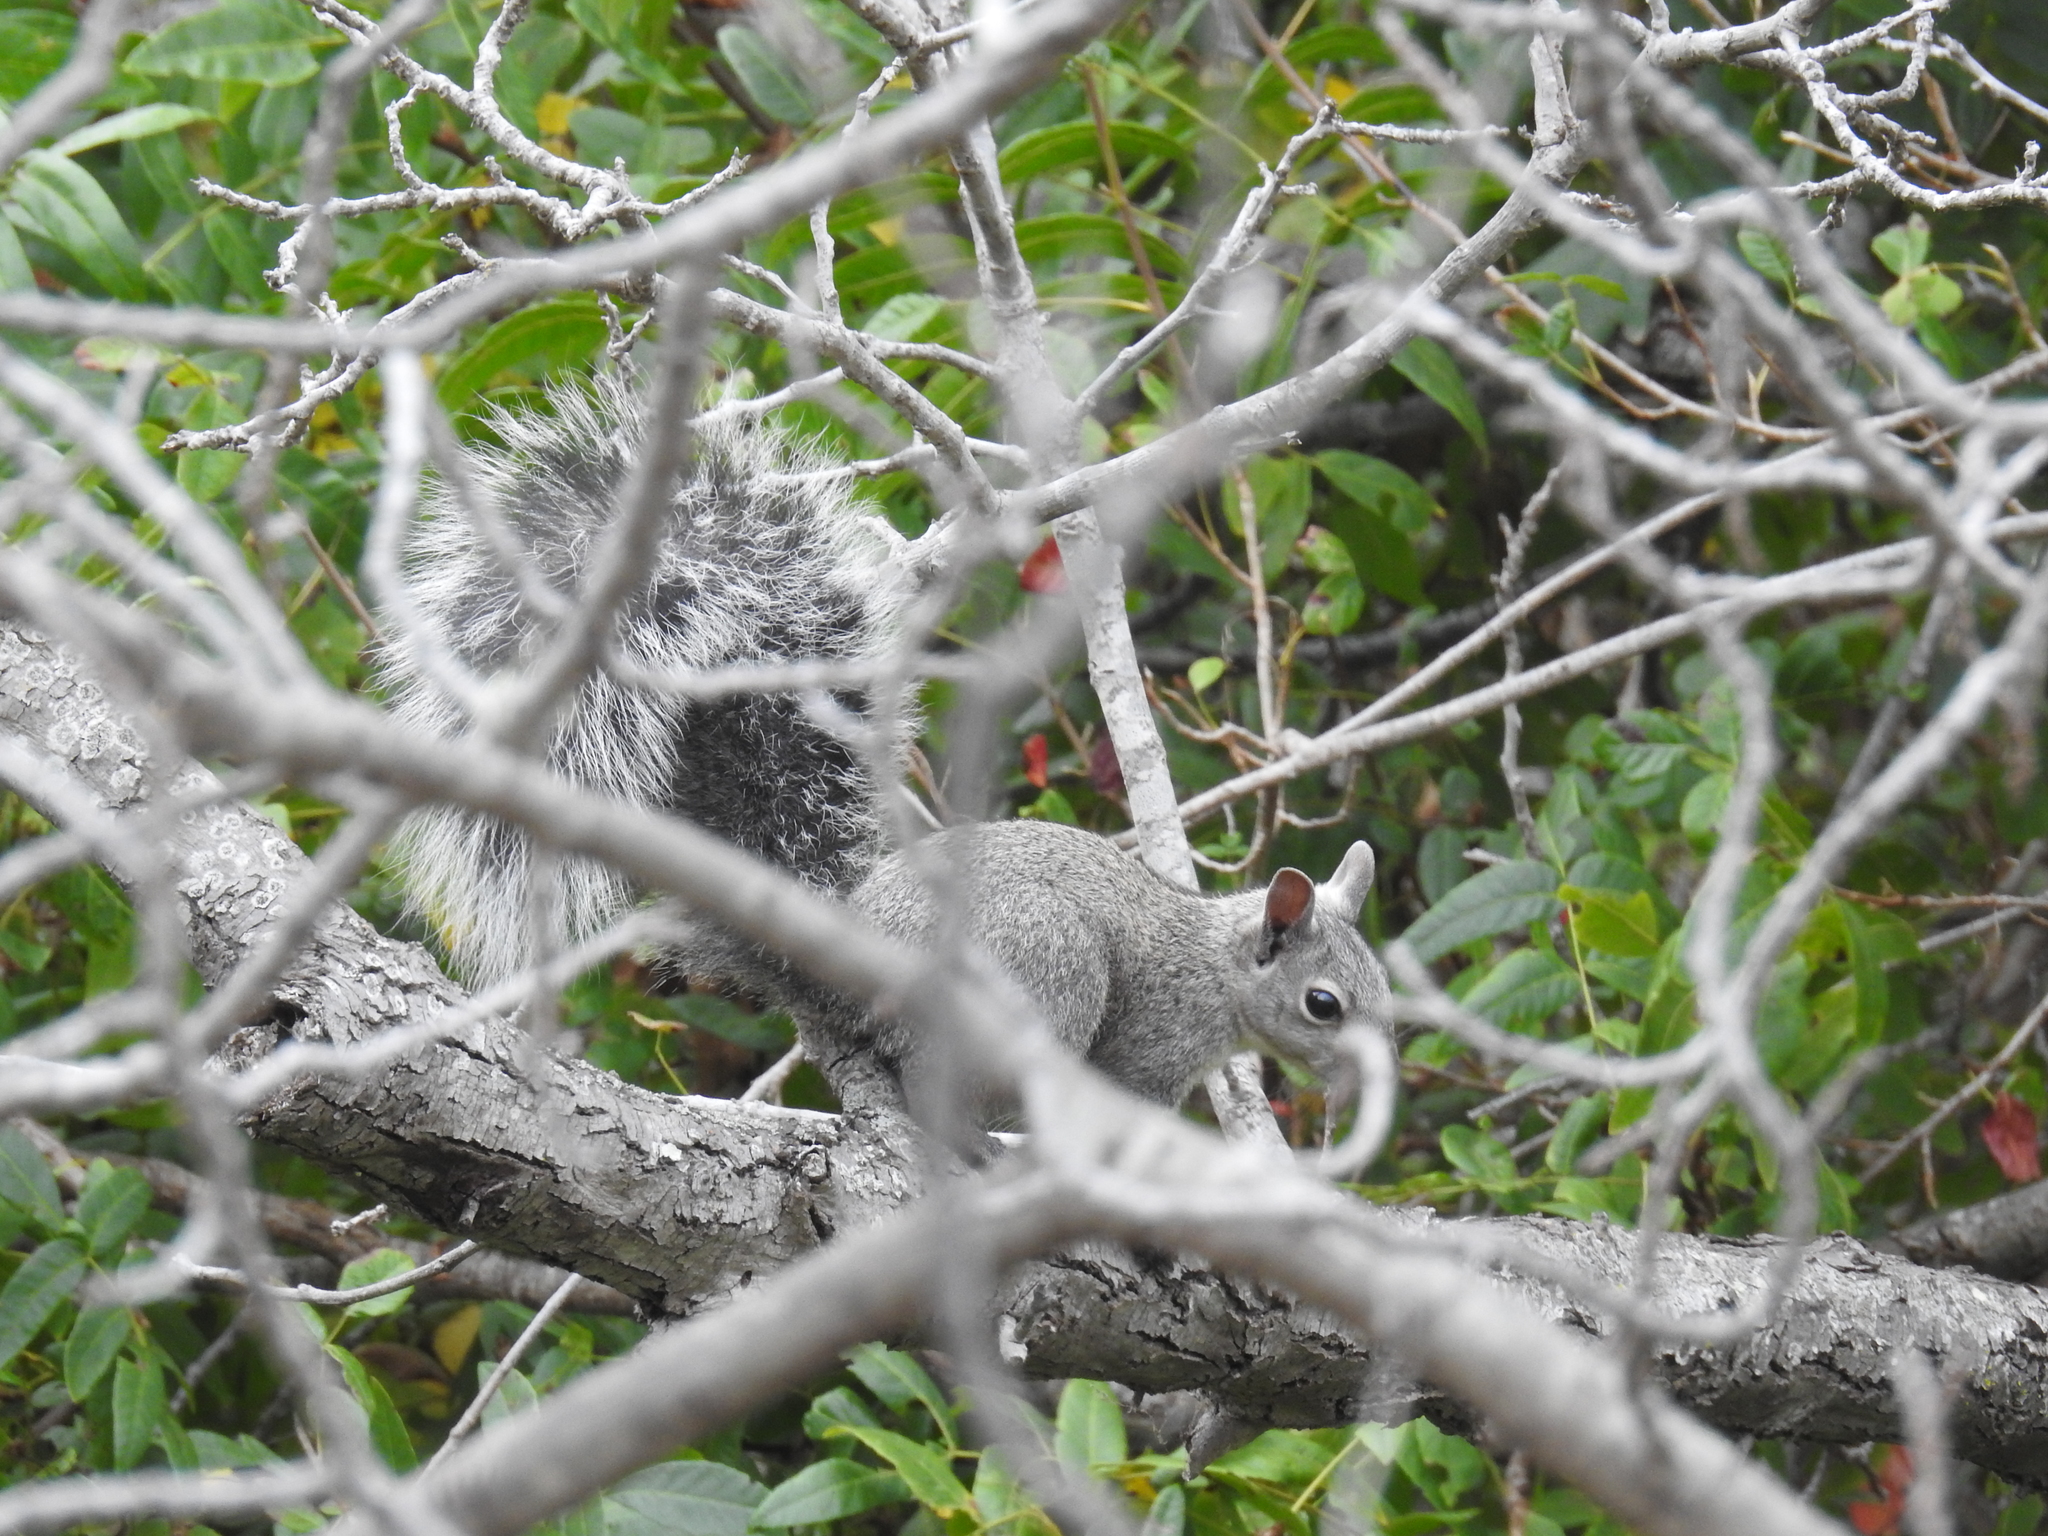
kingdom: Animalia
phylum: Chordata
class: Mammalia
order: Rodentia
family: Sciuridae
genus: Sciurus
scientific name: Sciurus griseus
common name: Western gray squirrel
